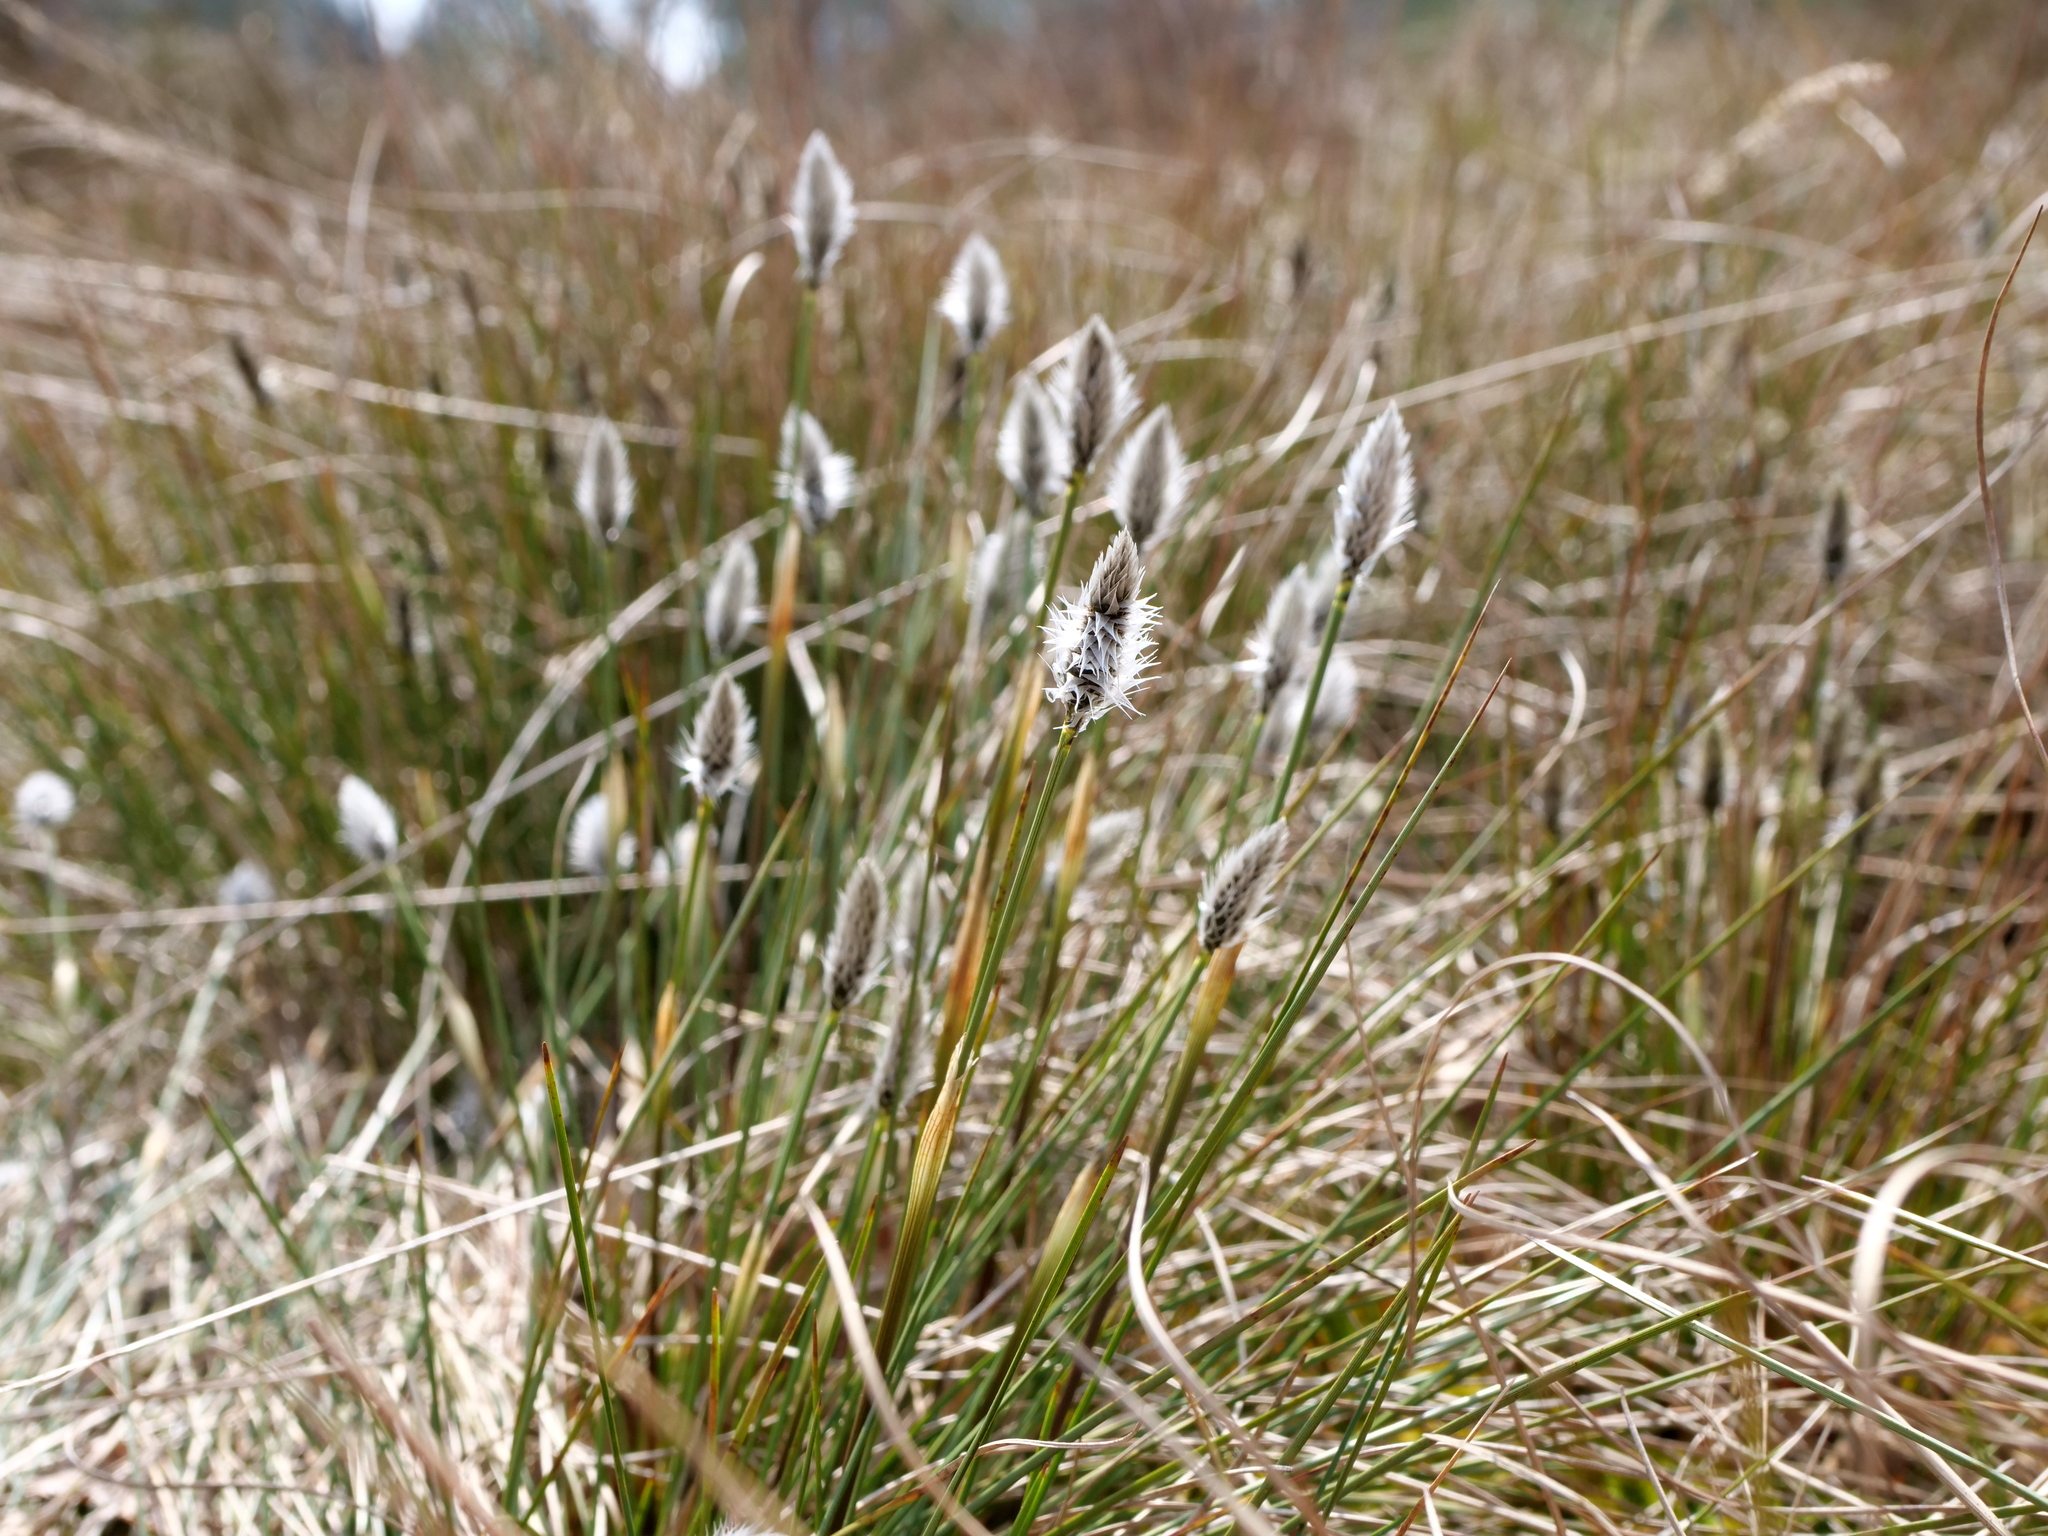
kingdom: Plantae
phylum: Tracheophyta
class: Liliopsida
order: Poales
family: Cyperaceae
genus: Eriophorum
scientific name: Eriophorum vaginatum
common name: Hare's-tail cottongrass
